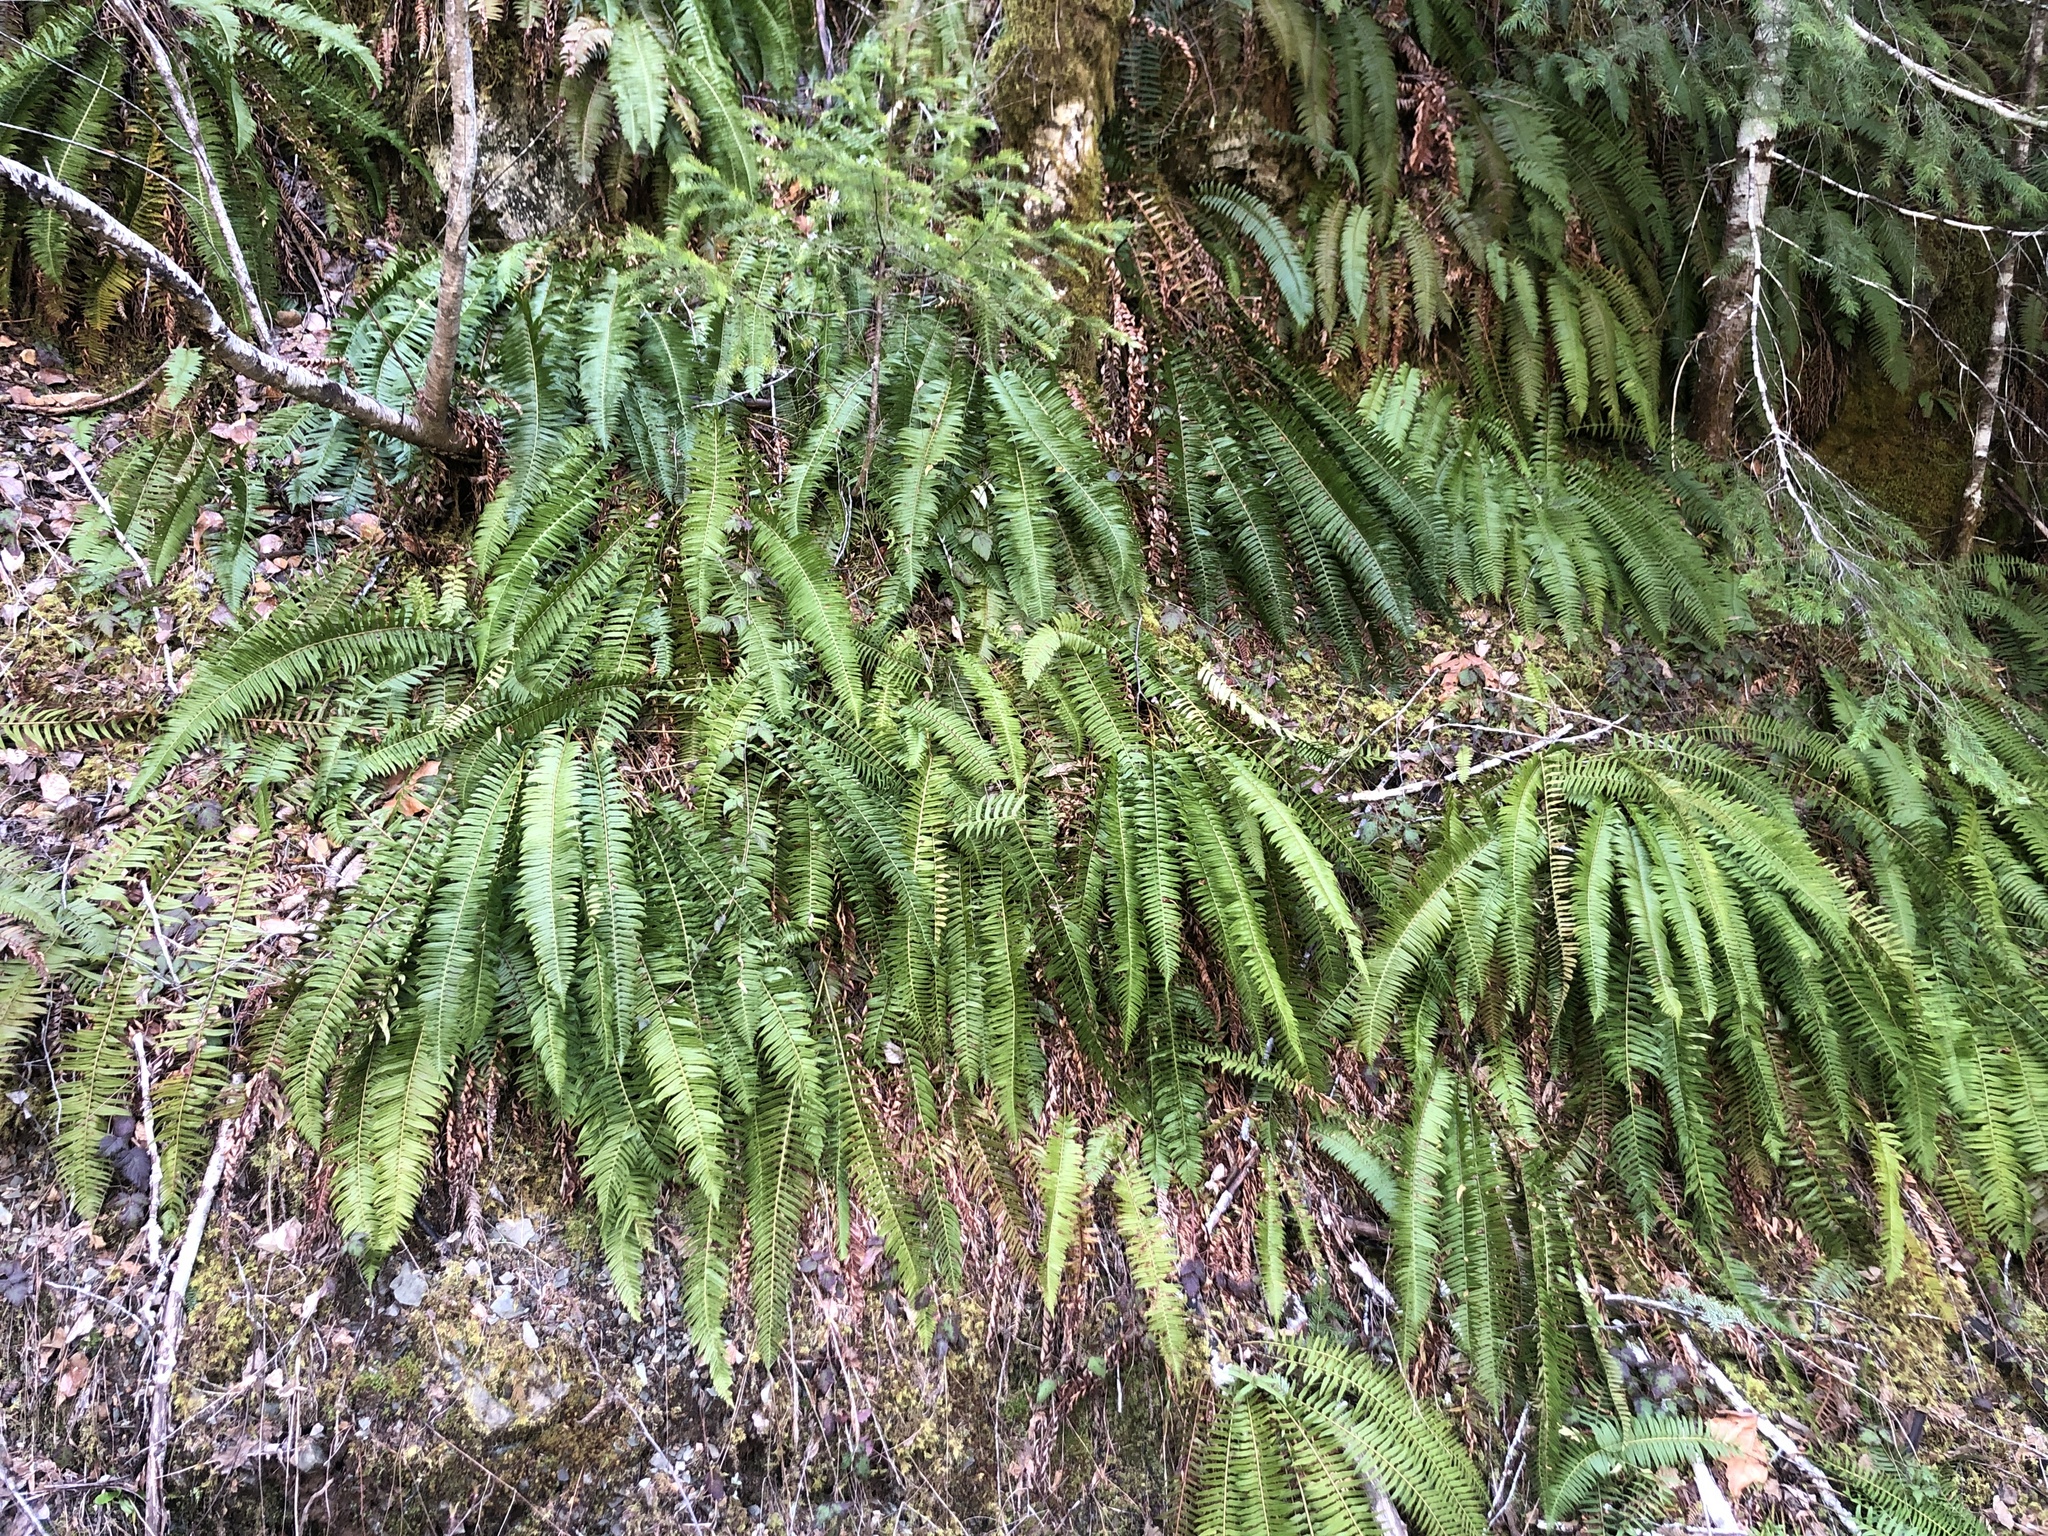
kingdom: Plantae
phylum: Tracheophyta
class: Polypodiopsida
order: Polypodiales
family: Dryopteridaceae
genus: Polystichum
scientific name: Polystichum munitum
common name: Western sword-fern
